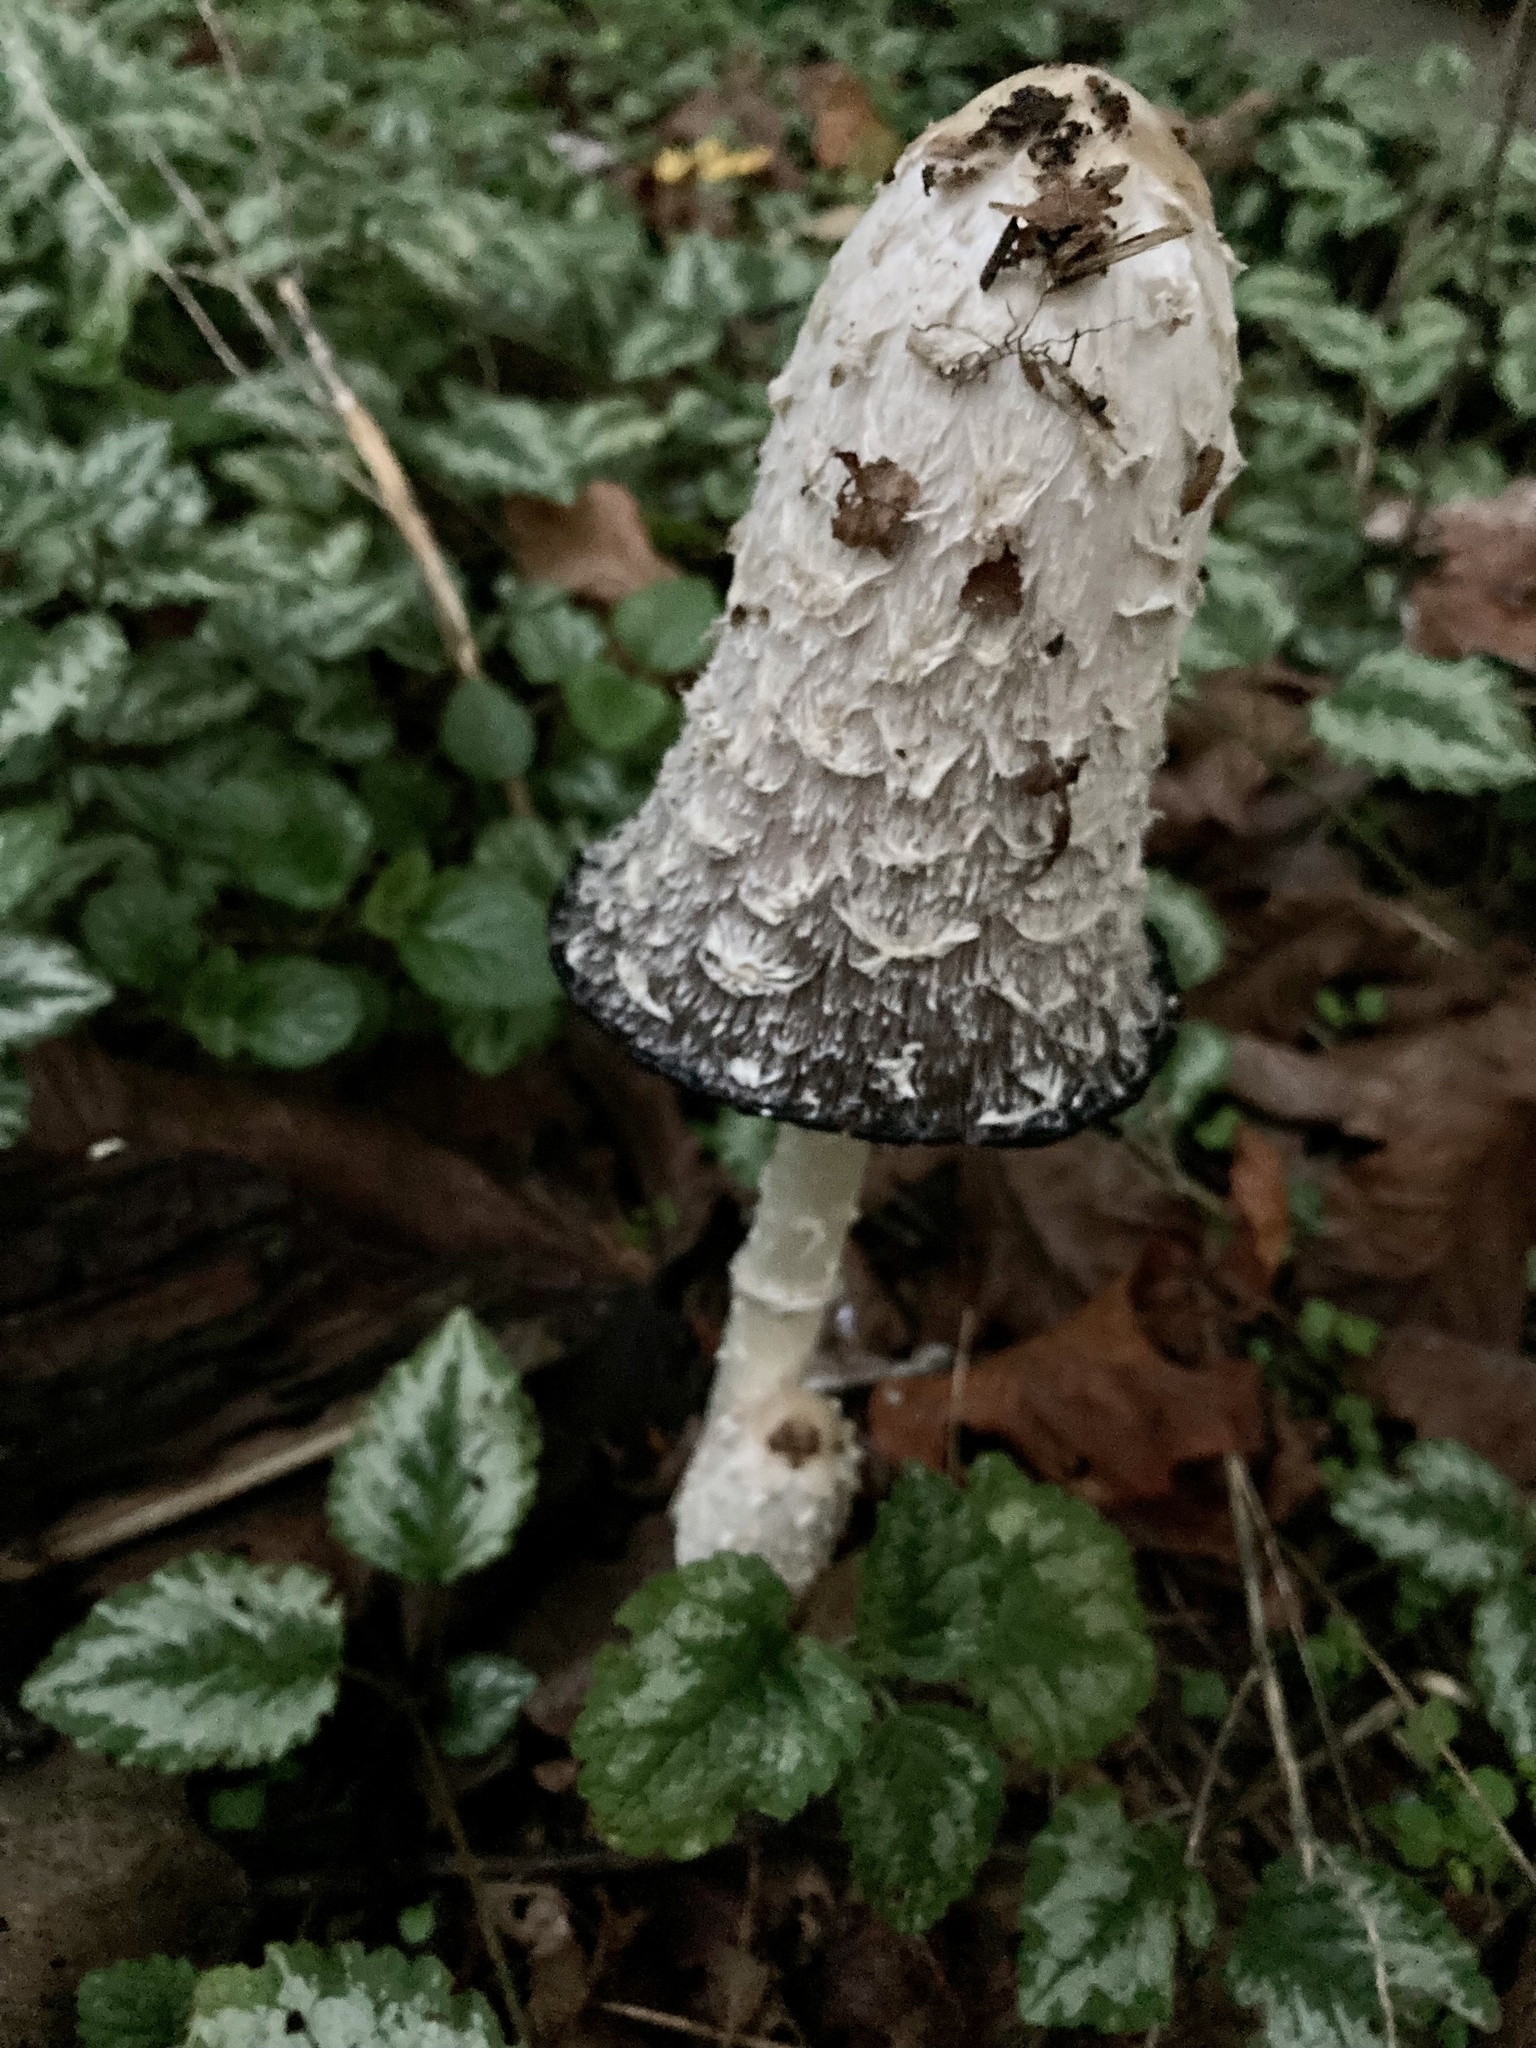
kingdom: Fungi
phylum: Basidiomycota
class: Agaricomycetes
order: Agaricales
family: Agaricaceae
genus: Coprinus
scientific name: Coprinus comatus
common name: Lawyer's wig
